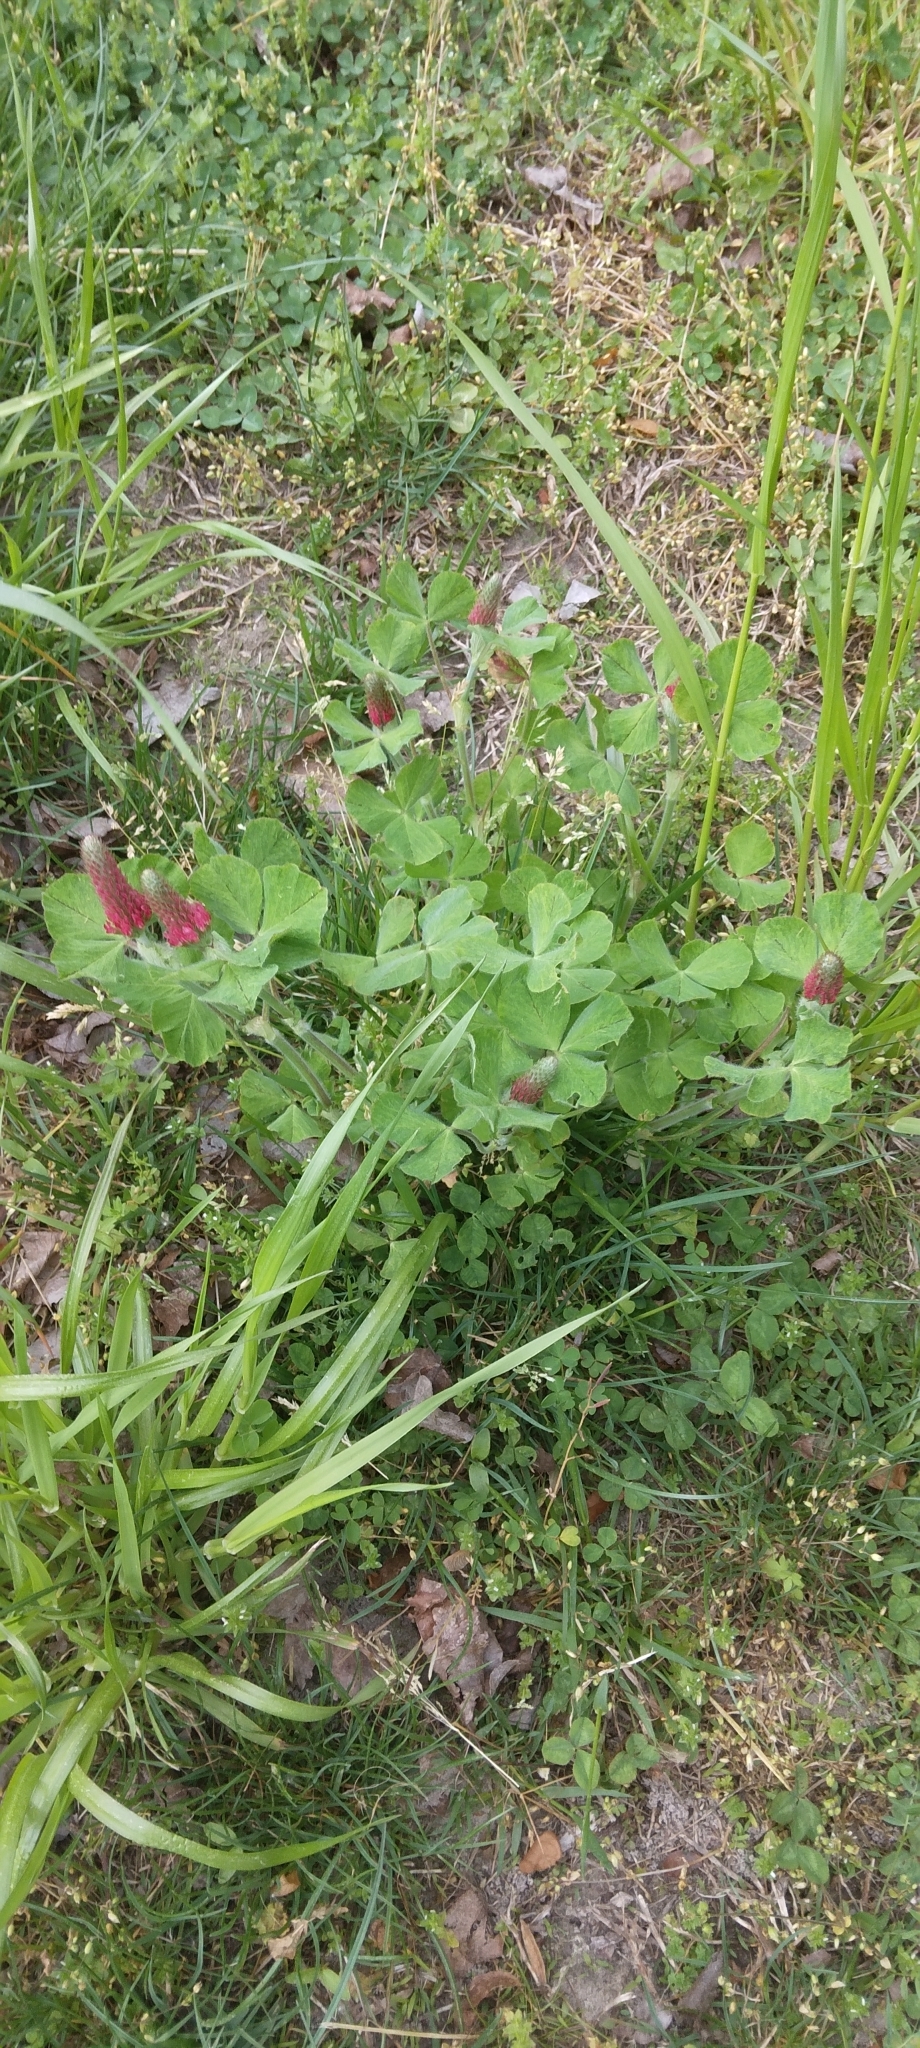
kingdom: Plantae
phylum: Tracheophyta
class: Magnoliopsida
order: Fabales
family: Fabaceae
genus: Trifolium
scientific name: Trifolium incarnatum
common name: Crimson clover
